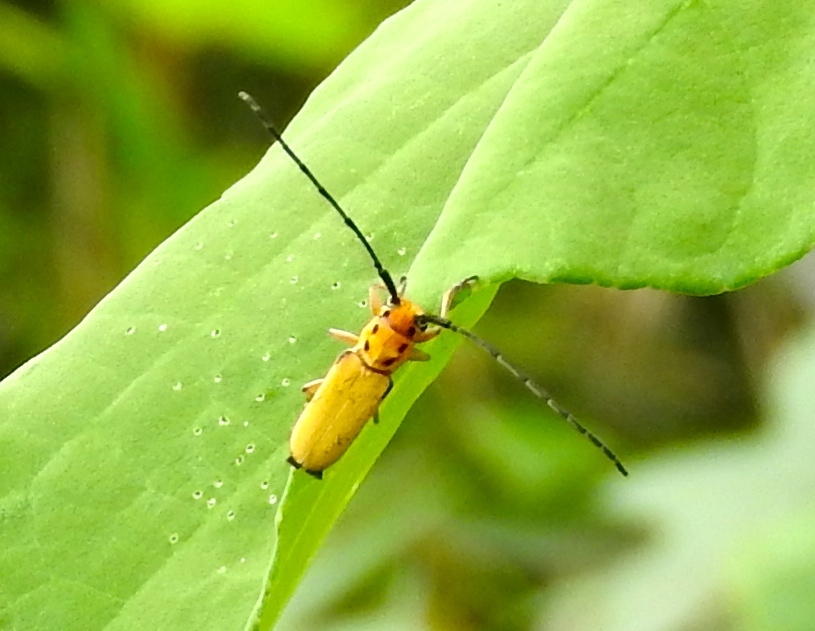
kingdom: Animalia
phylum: Arthropoda
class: Insecta
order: Coleoptera
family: Cerambycidae
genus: Essostrutha
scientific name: Essostrutha laeta
